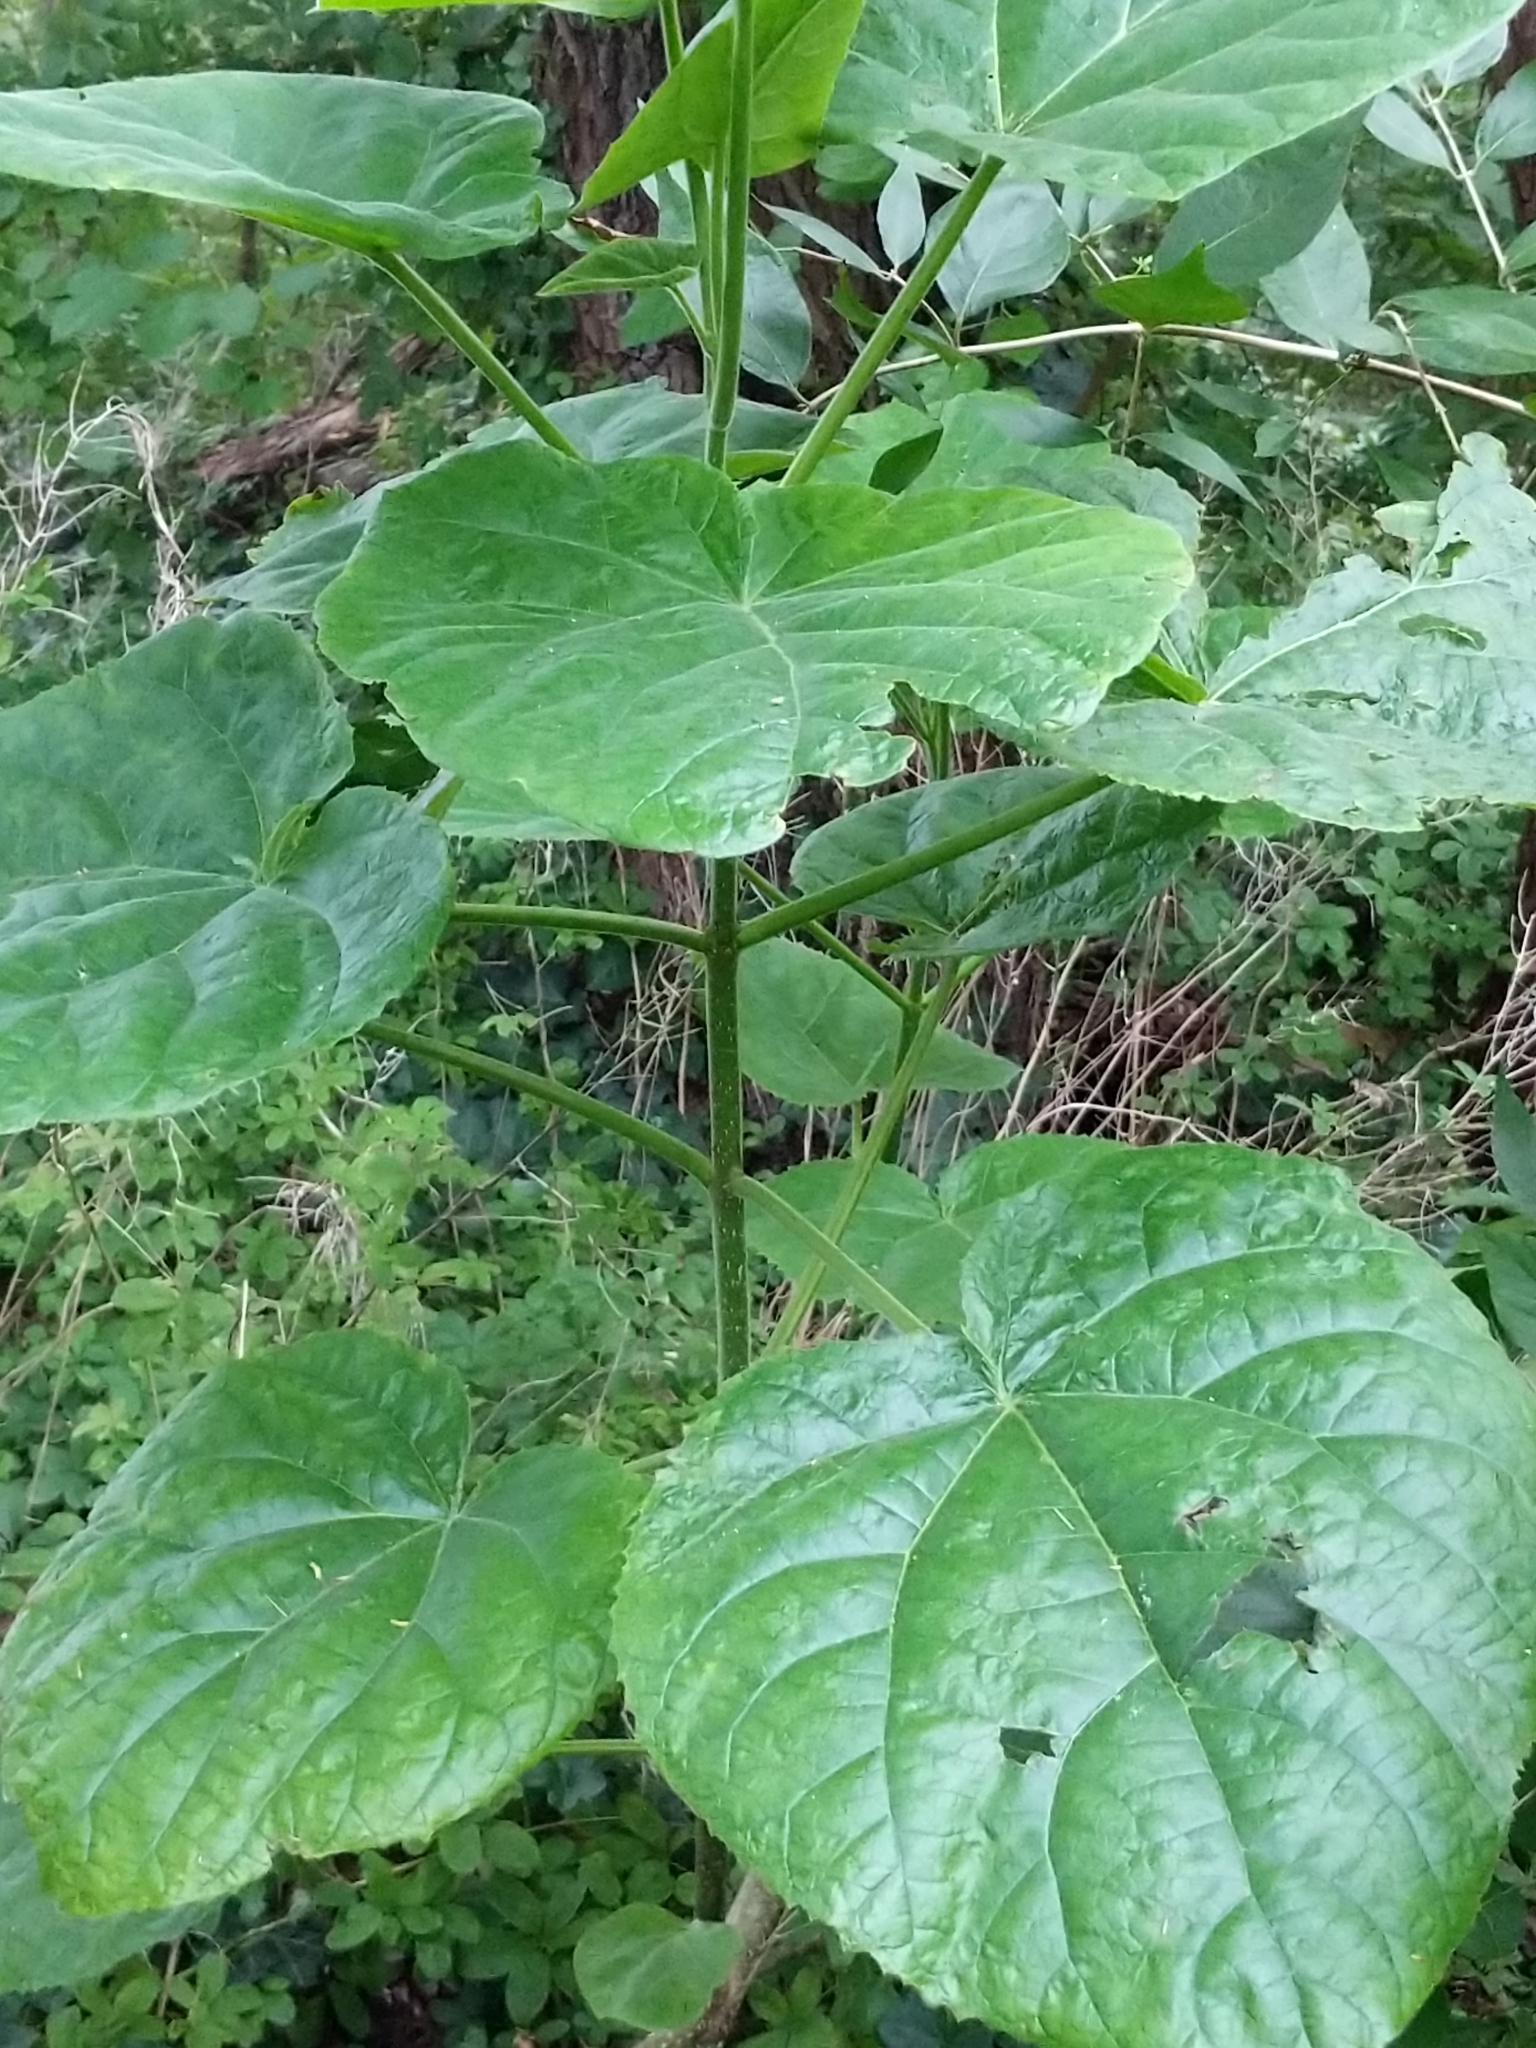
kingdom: Plantae
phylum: Tracheophyta
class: Magnoliopsida
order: Lamiales
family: Paulowniaceae
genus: Paulownia
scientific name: Paulownia tomentosa
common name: Foxglove-tree
